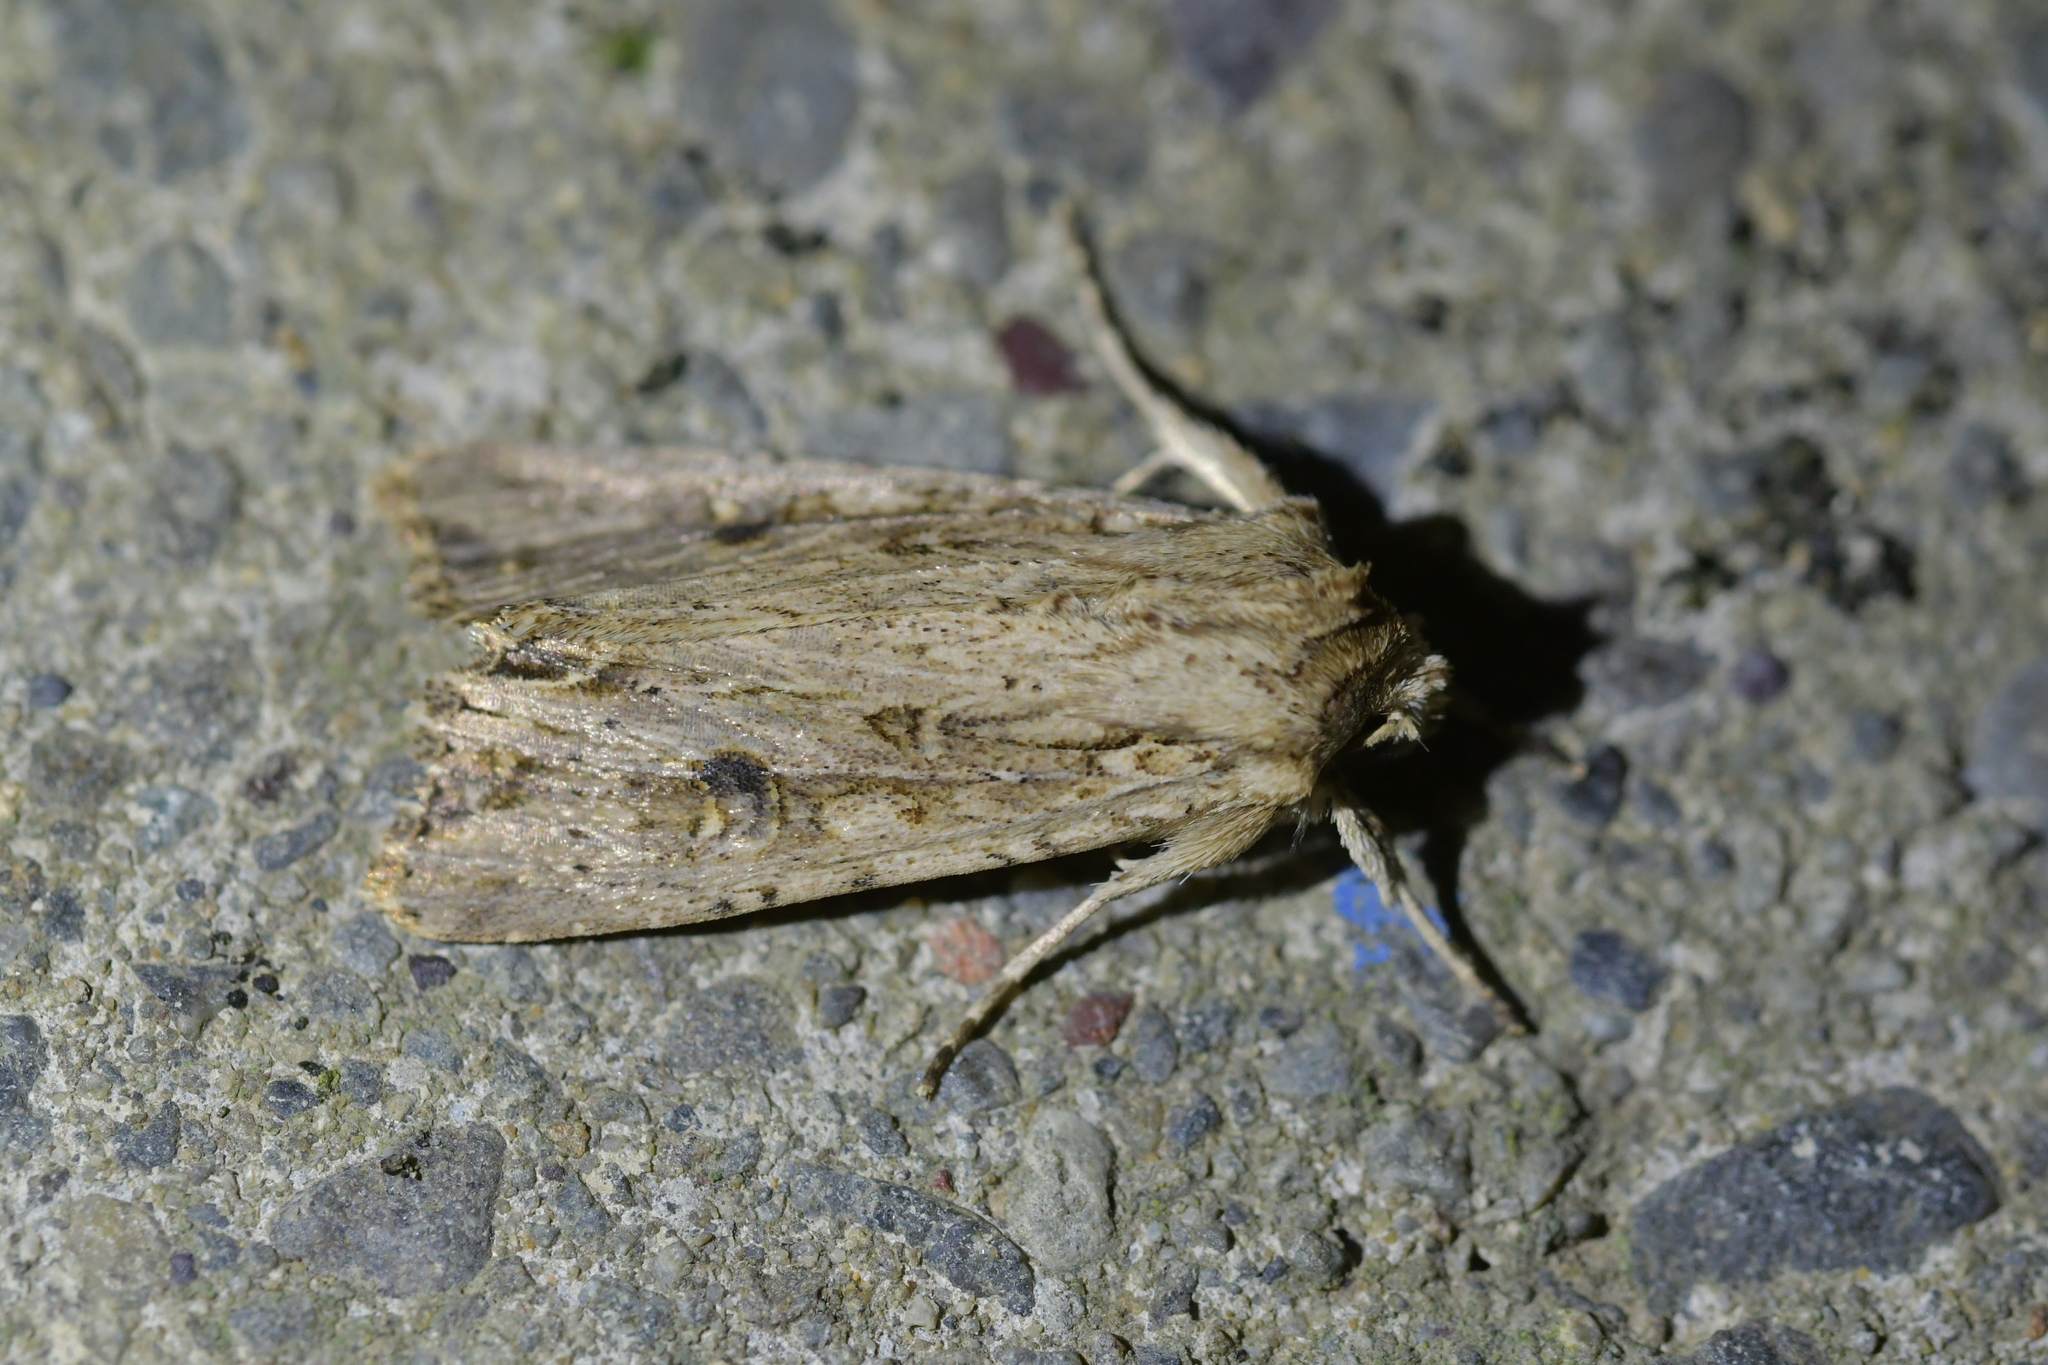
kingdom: Animalia
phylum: Arthropoda
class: Insecta
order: Lepidoptera
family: Noctuidae
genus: Ichneutica
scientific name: Ichneutica lignana
